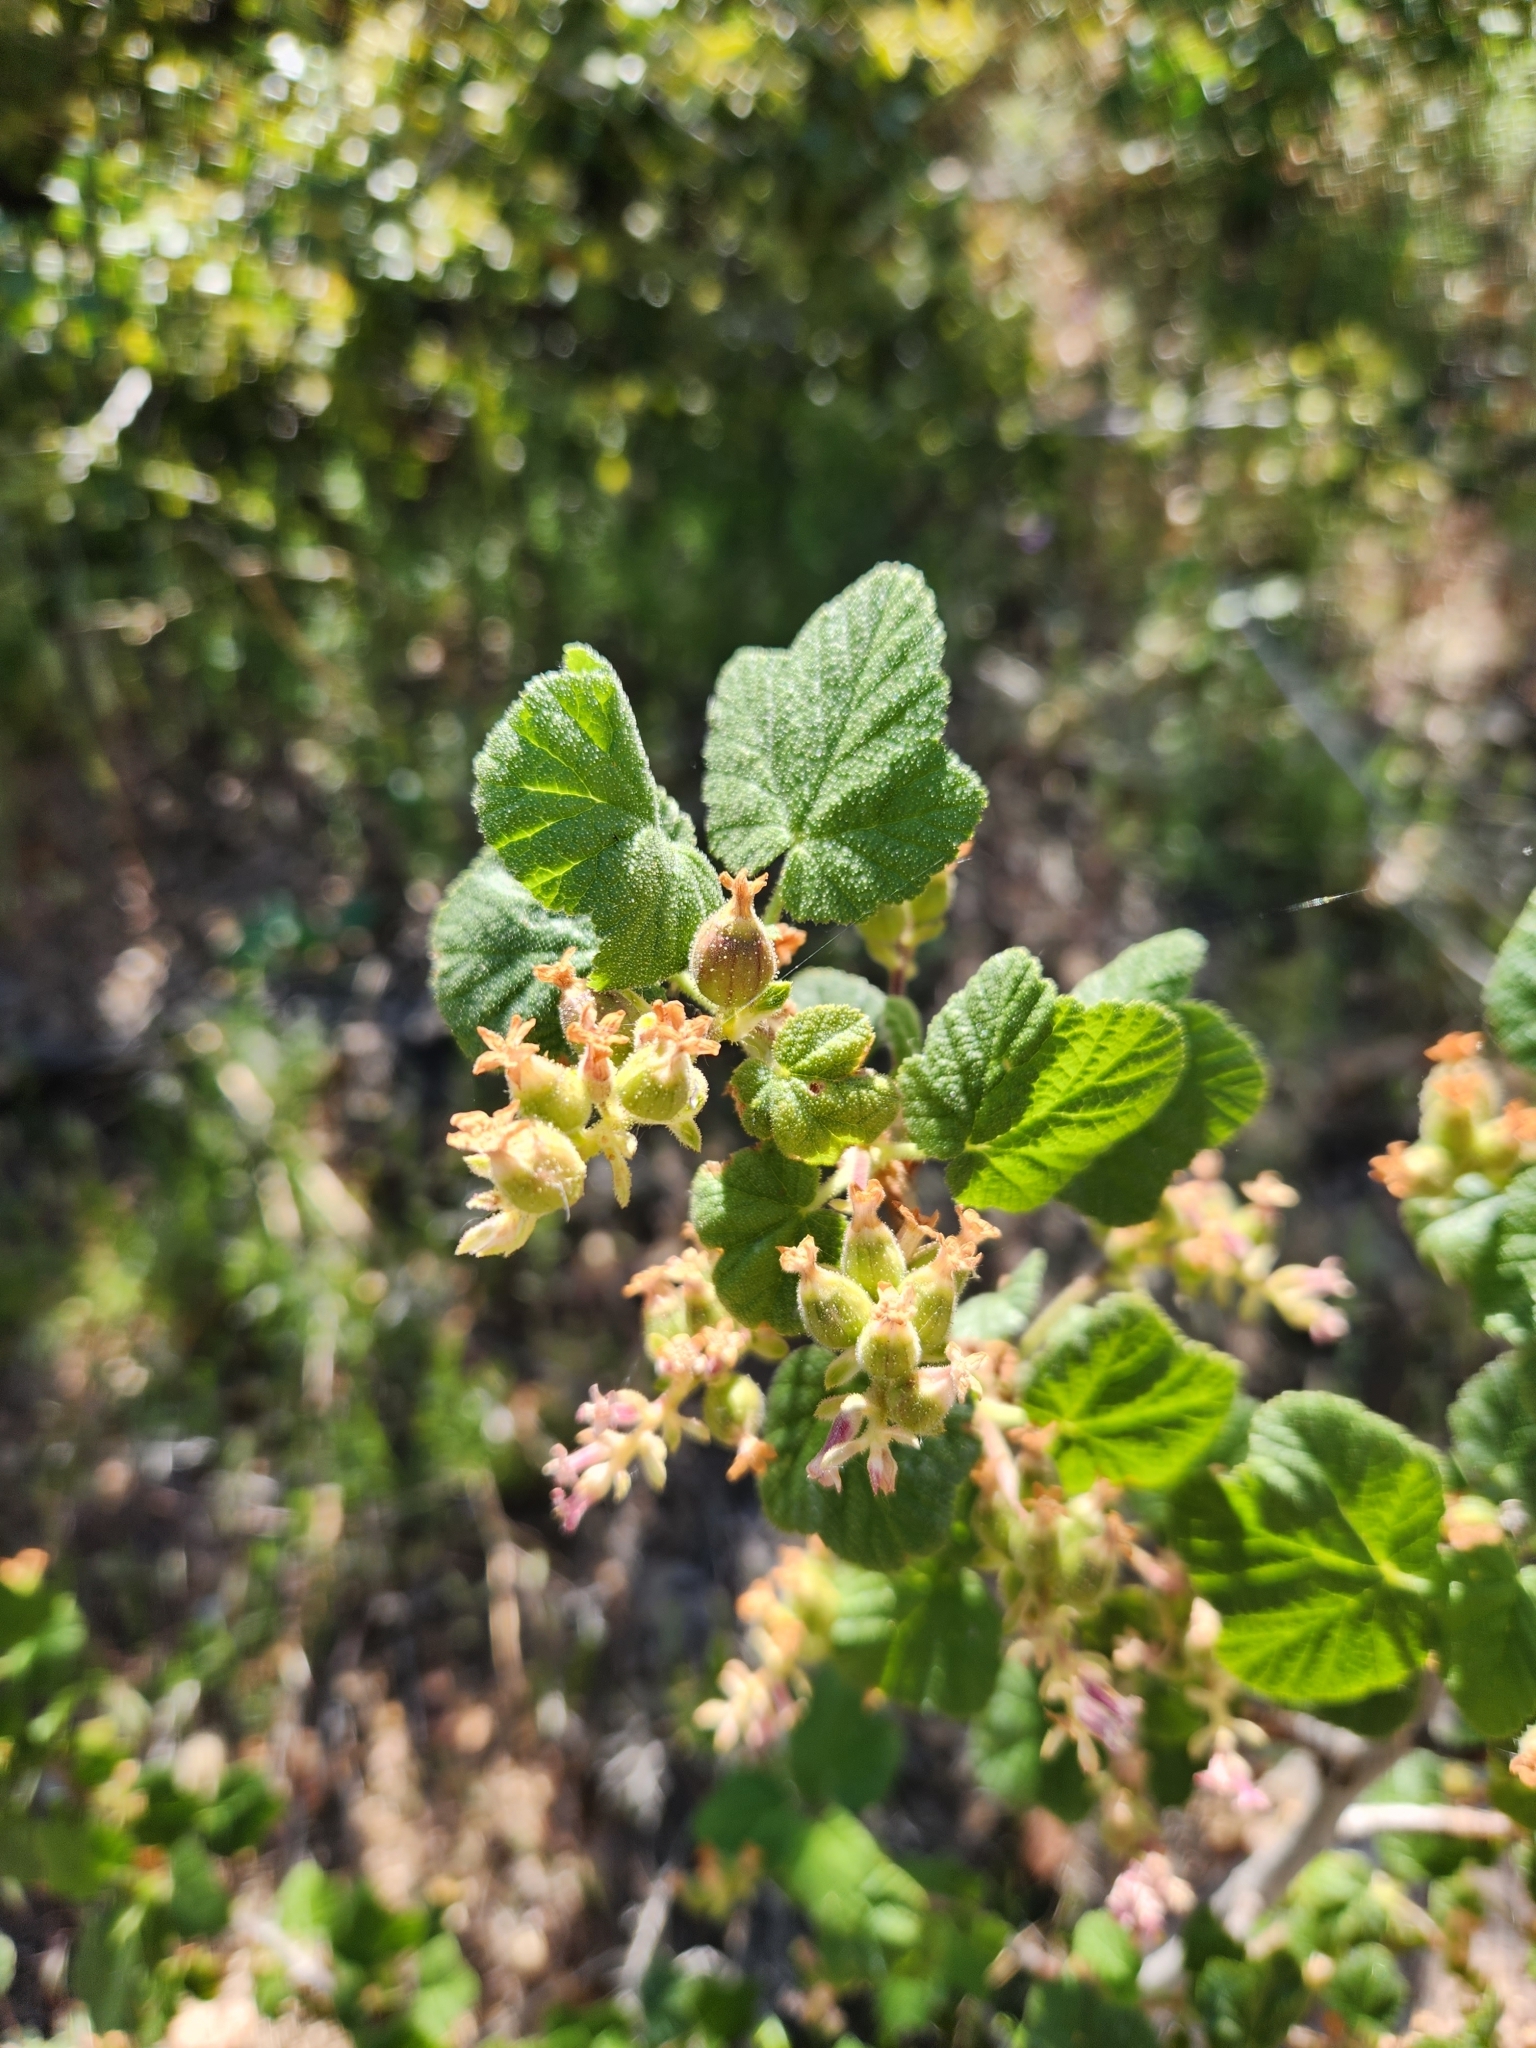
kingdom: Plantae
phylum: Tracheophyta
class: Magnoliopsida
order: Saxifragales
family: Grossulariaceae
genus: Ribes
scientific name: Ribes nevadense
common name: Mountain pink currant
